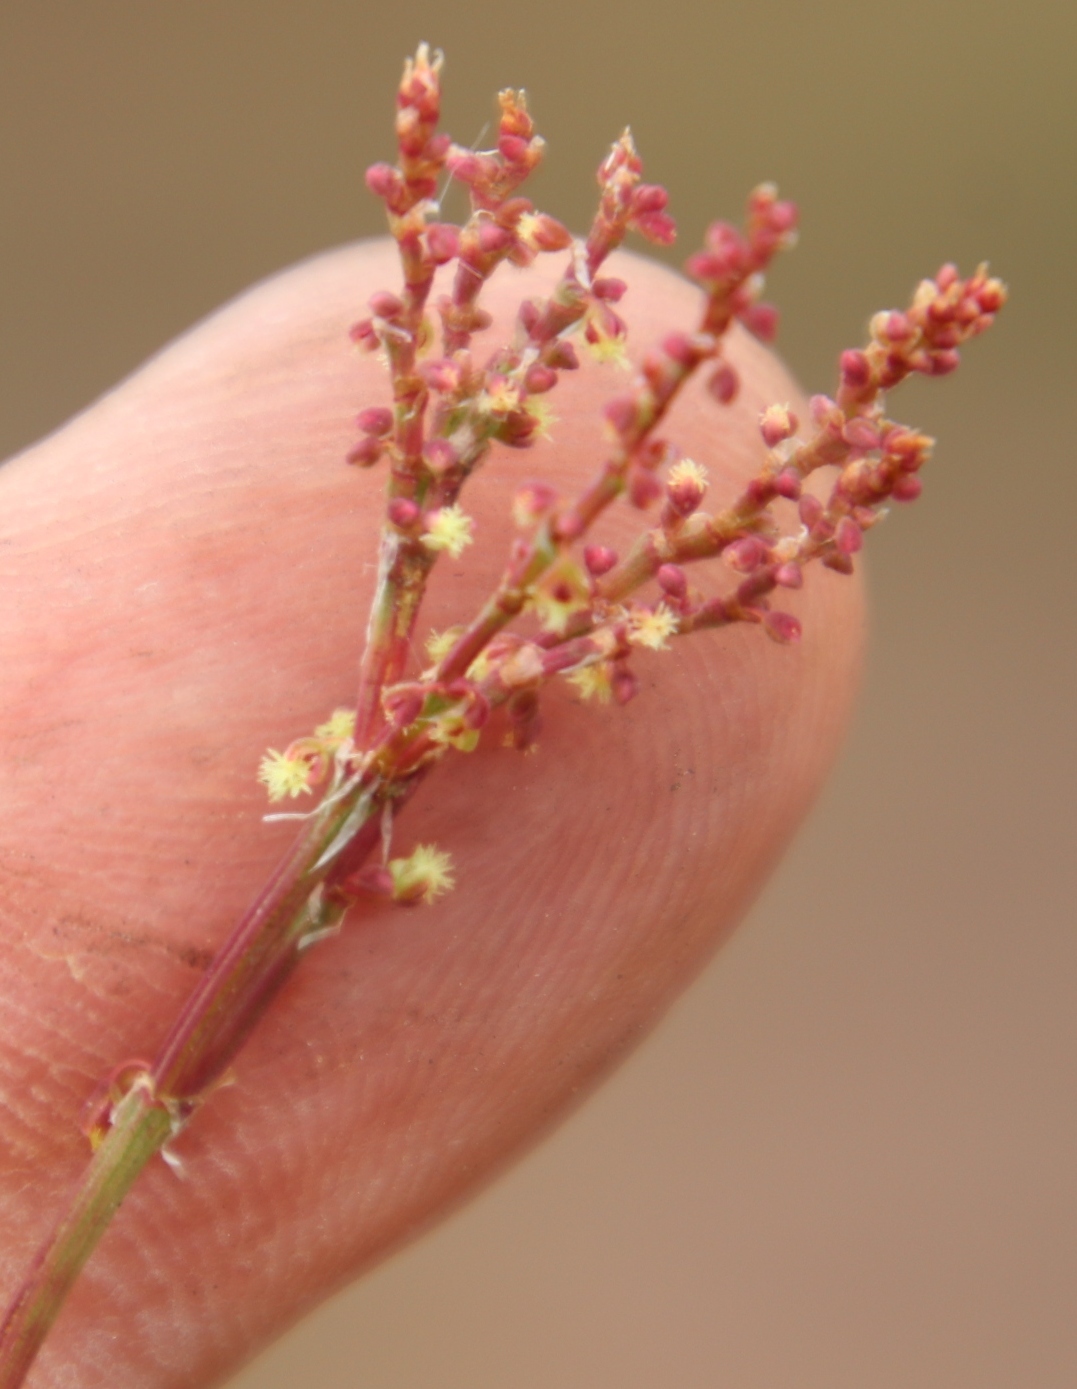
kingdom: Plantae
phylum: Tracheophyta
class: Magnoliopsida
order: Caryophyllales
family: Polygonaceae
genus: Rumex
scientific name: Rumex acetosella
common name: Common sheep sorrel
